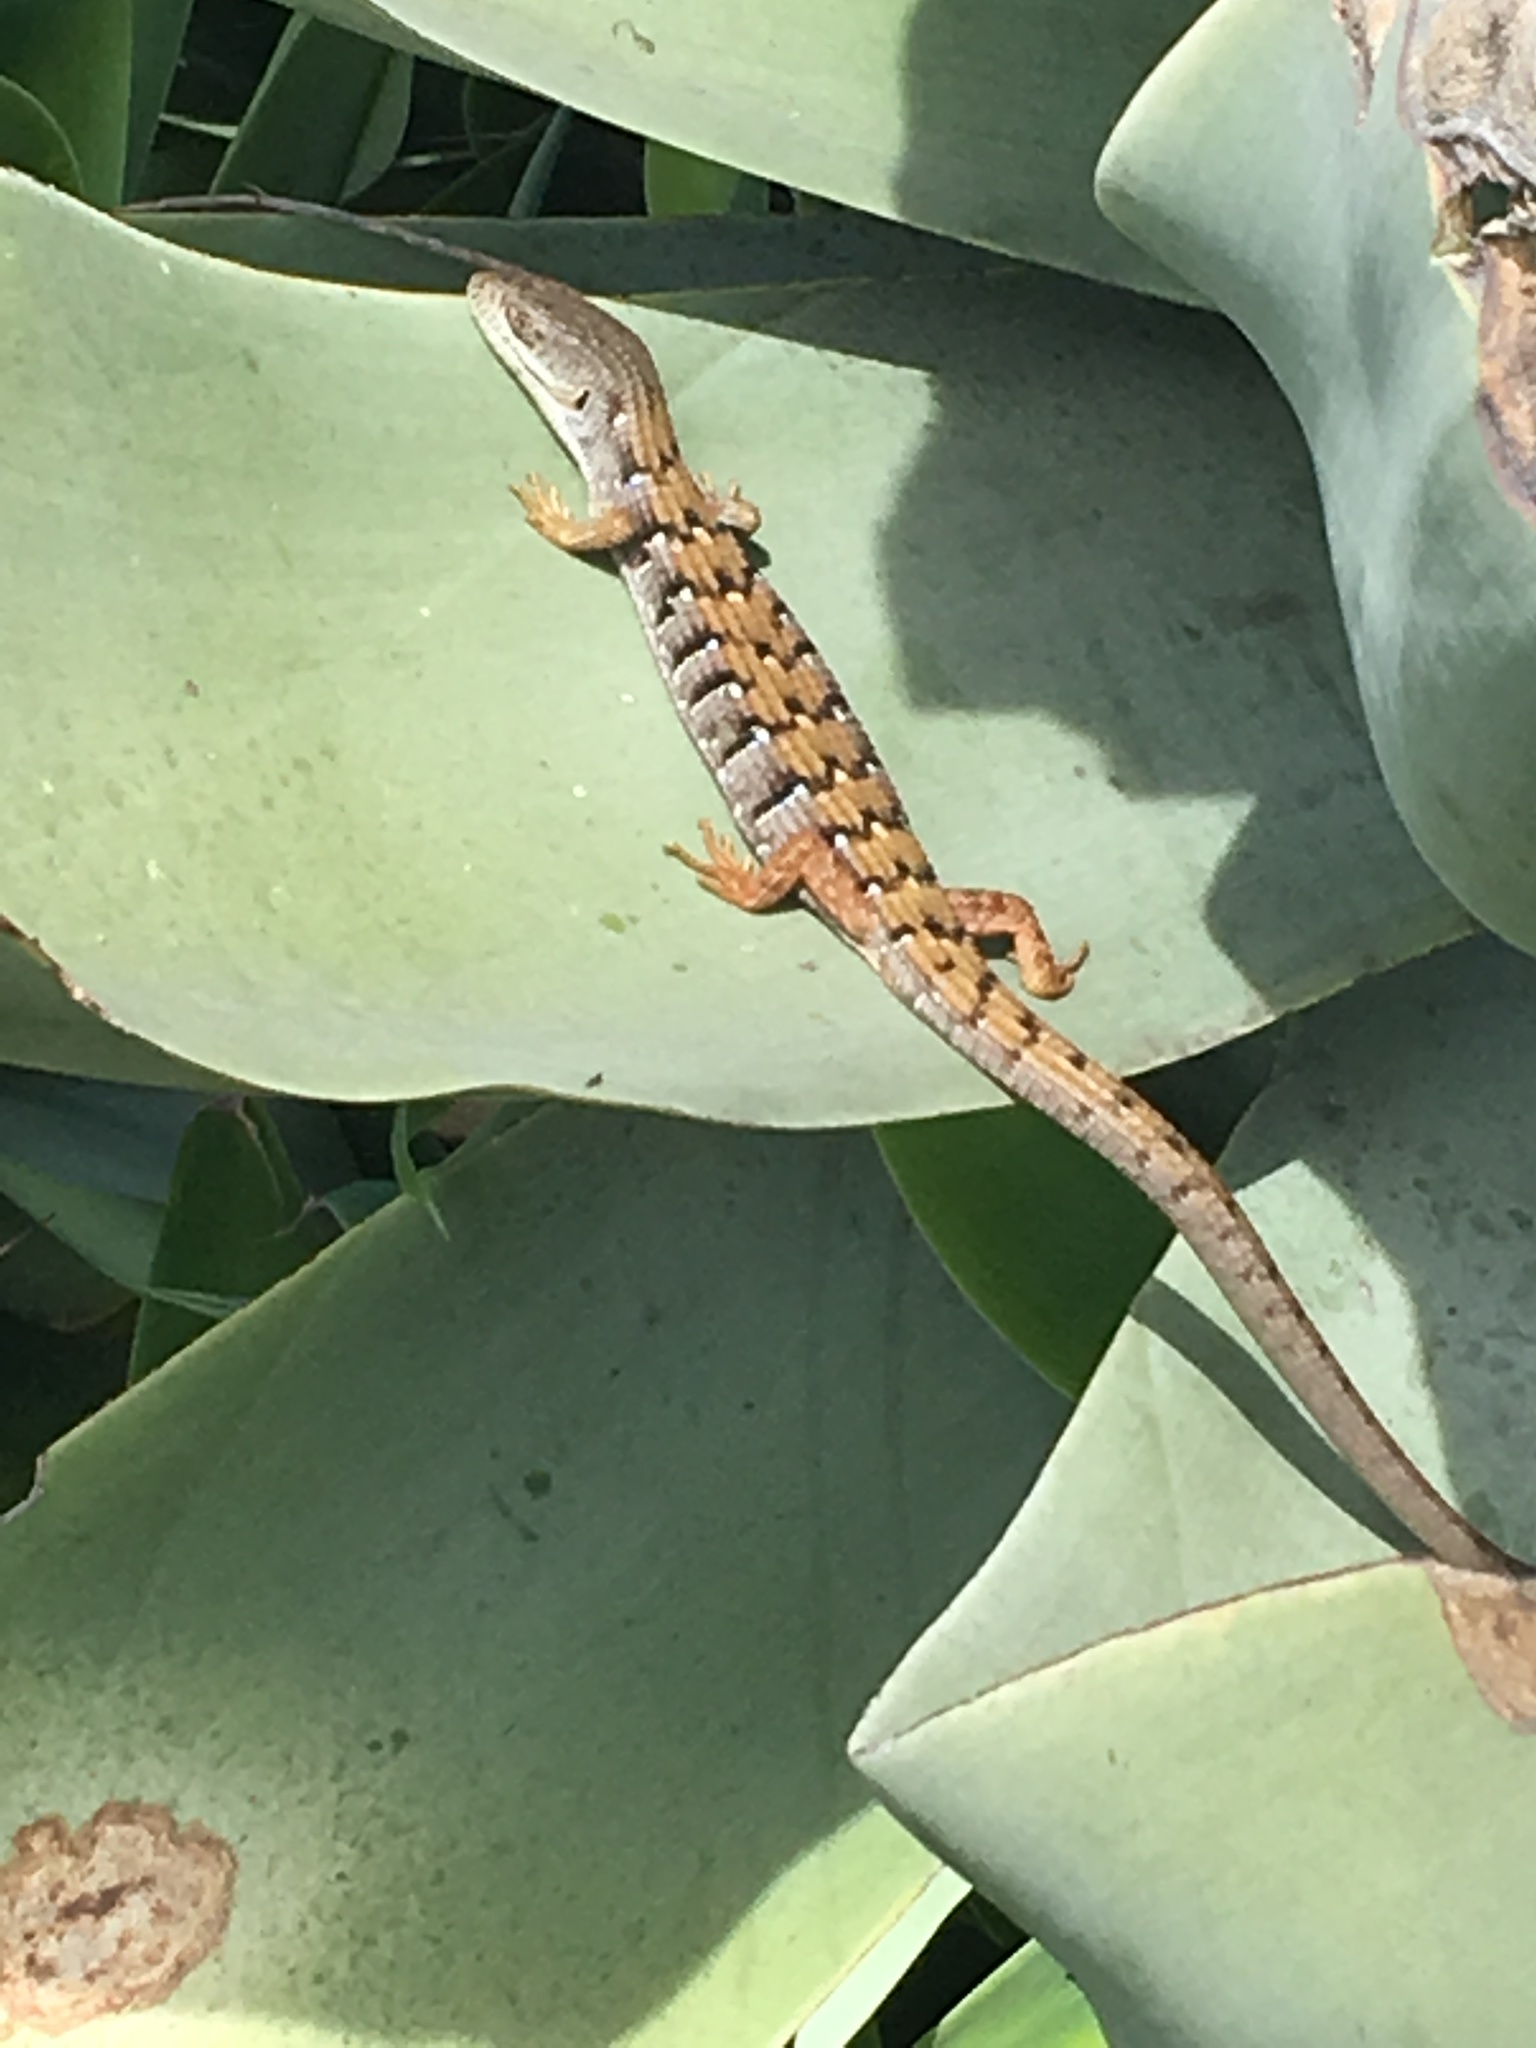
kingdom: Animalia
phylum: Chordata
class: Squamata
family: Anguidae
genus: Elgaria
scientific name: Elgaria multicarinata
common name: Southern alligator lizard
